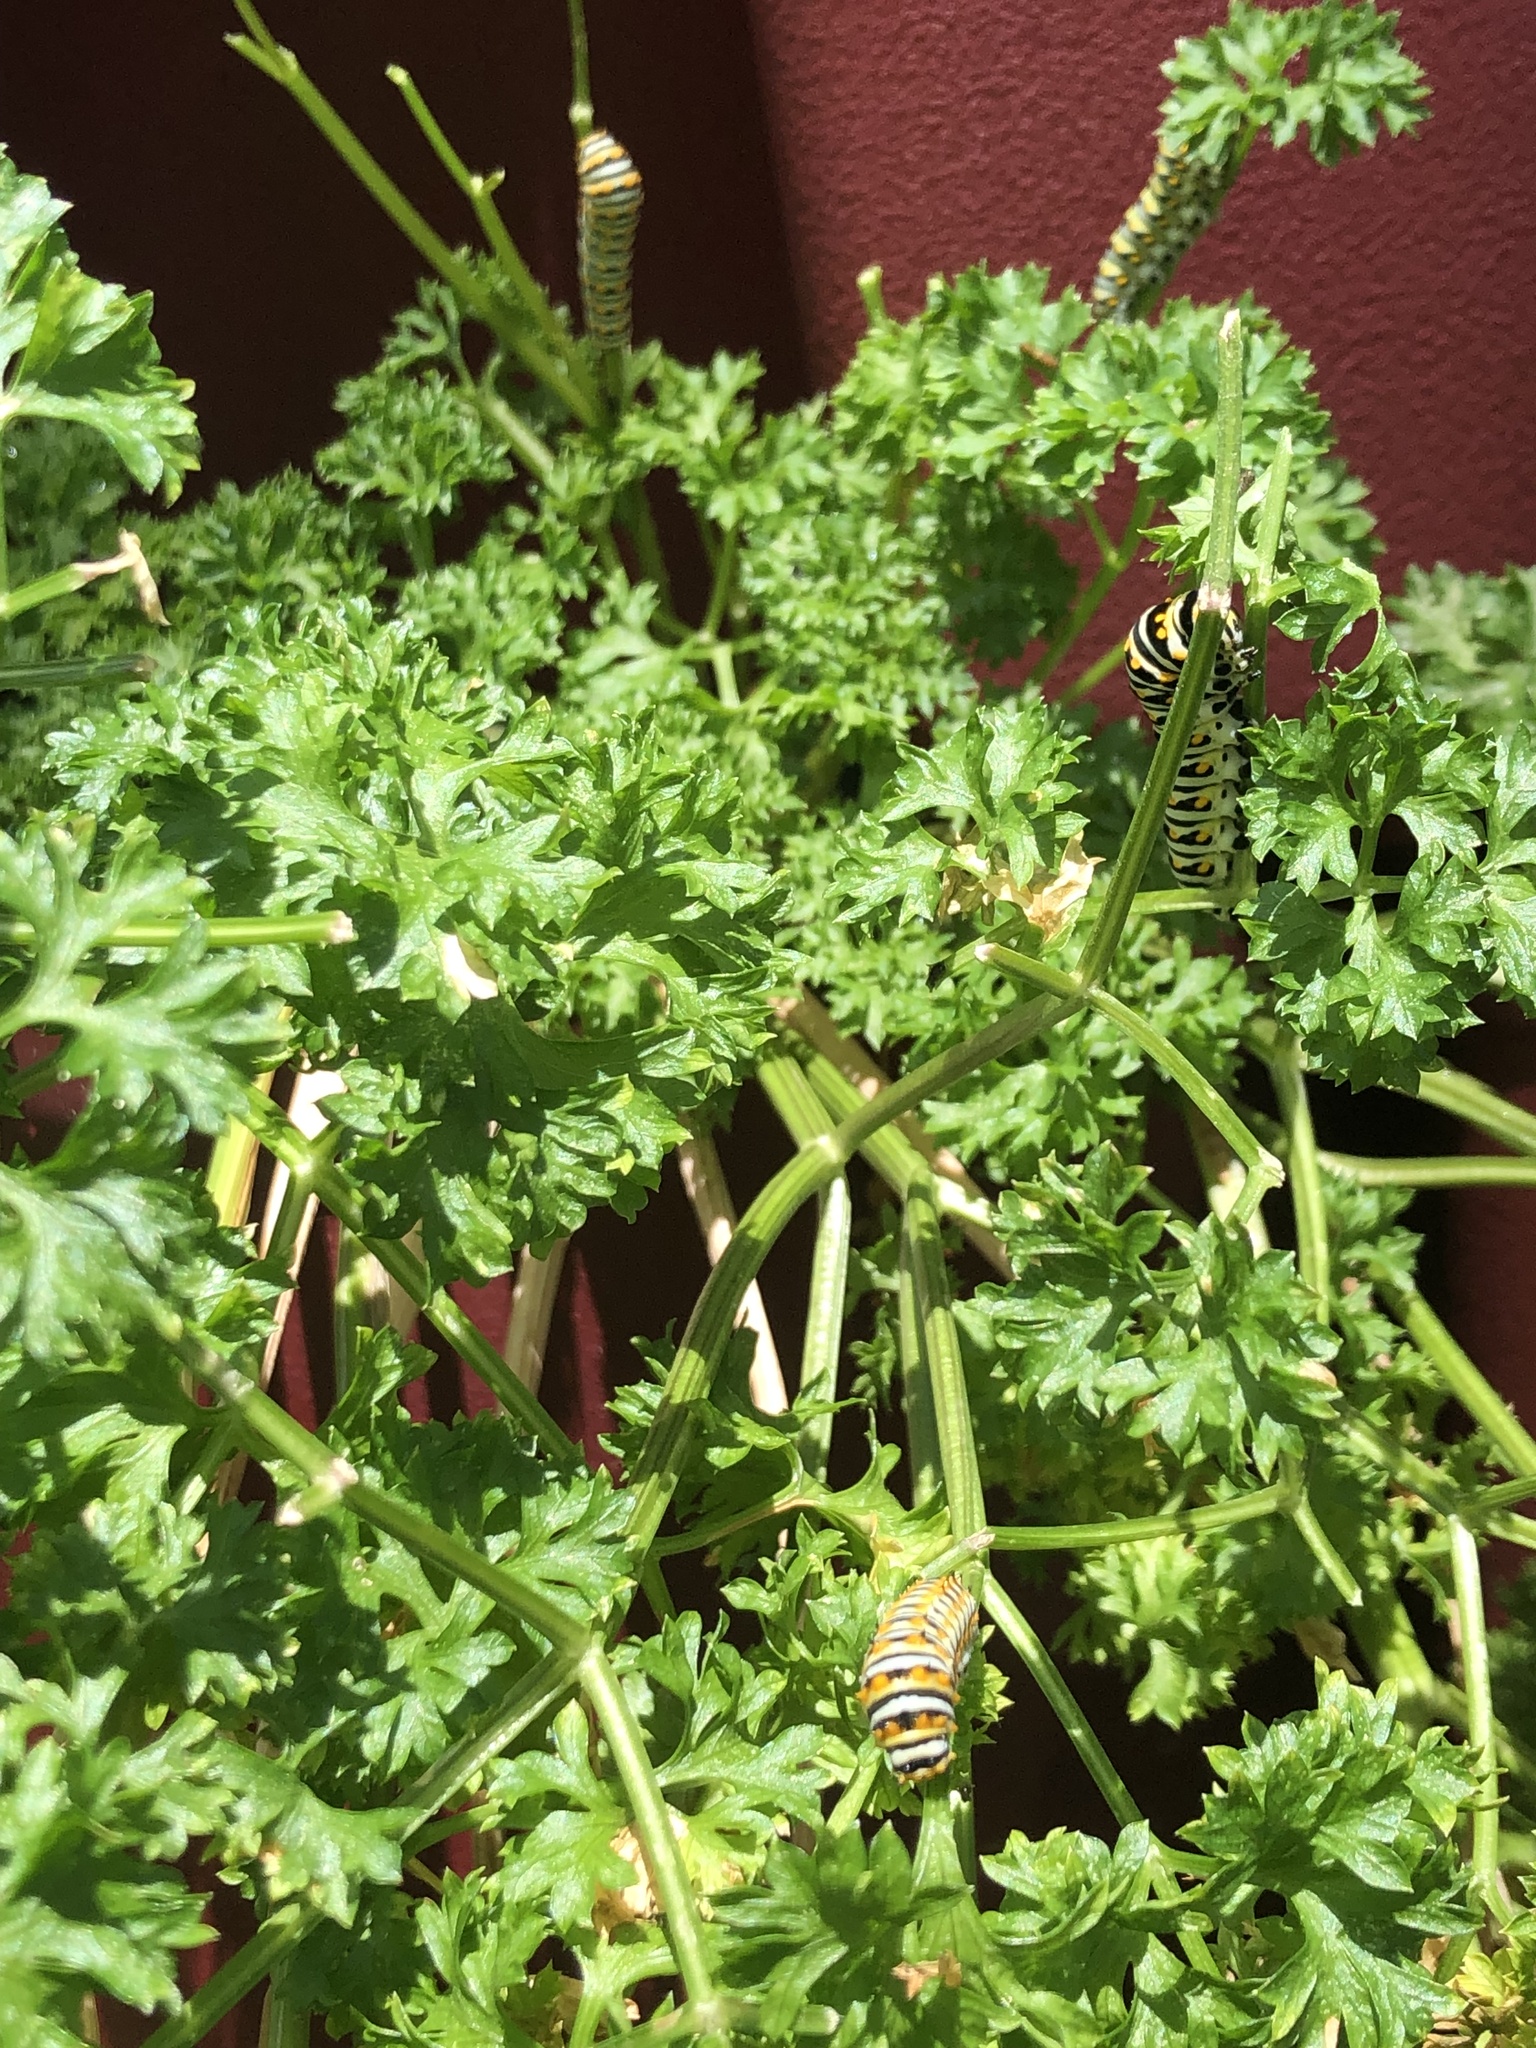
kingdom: Animalia
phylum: Arthropoda
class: Insecta
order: Lepidoptera
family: Papilionidae
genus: Papilio
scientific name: Papilio polyxenes
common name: Black swallowtail
